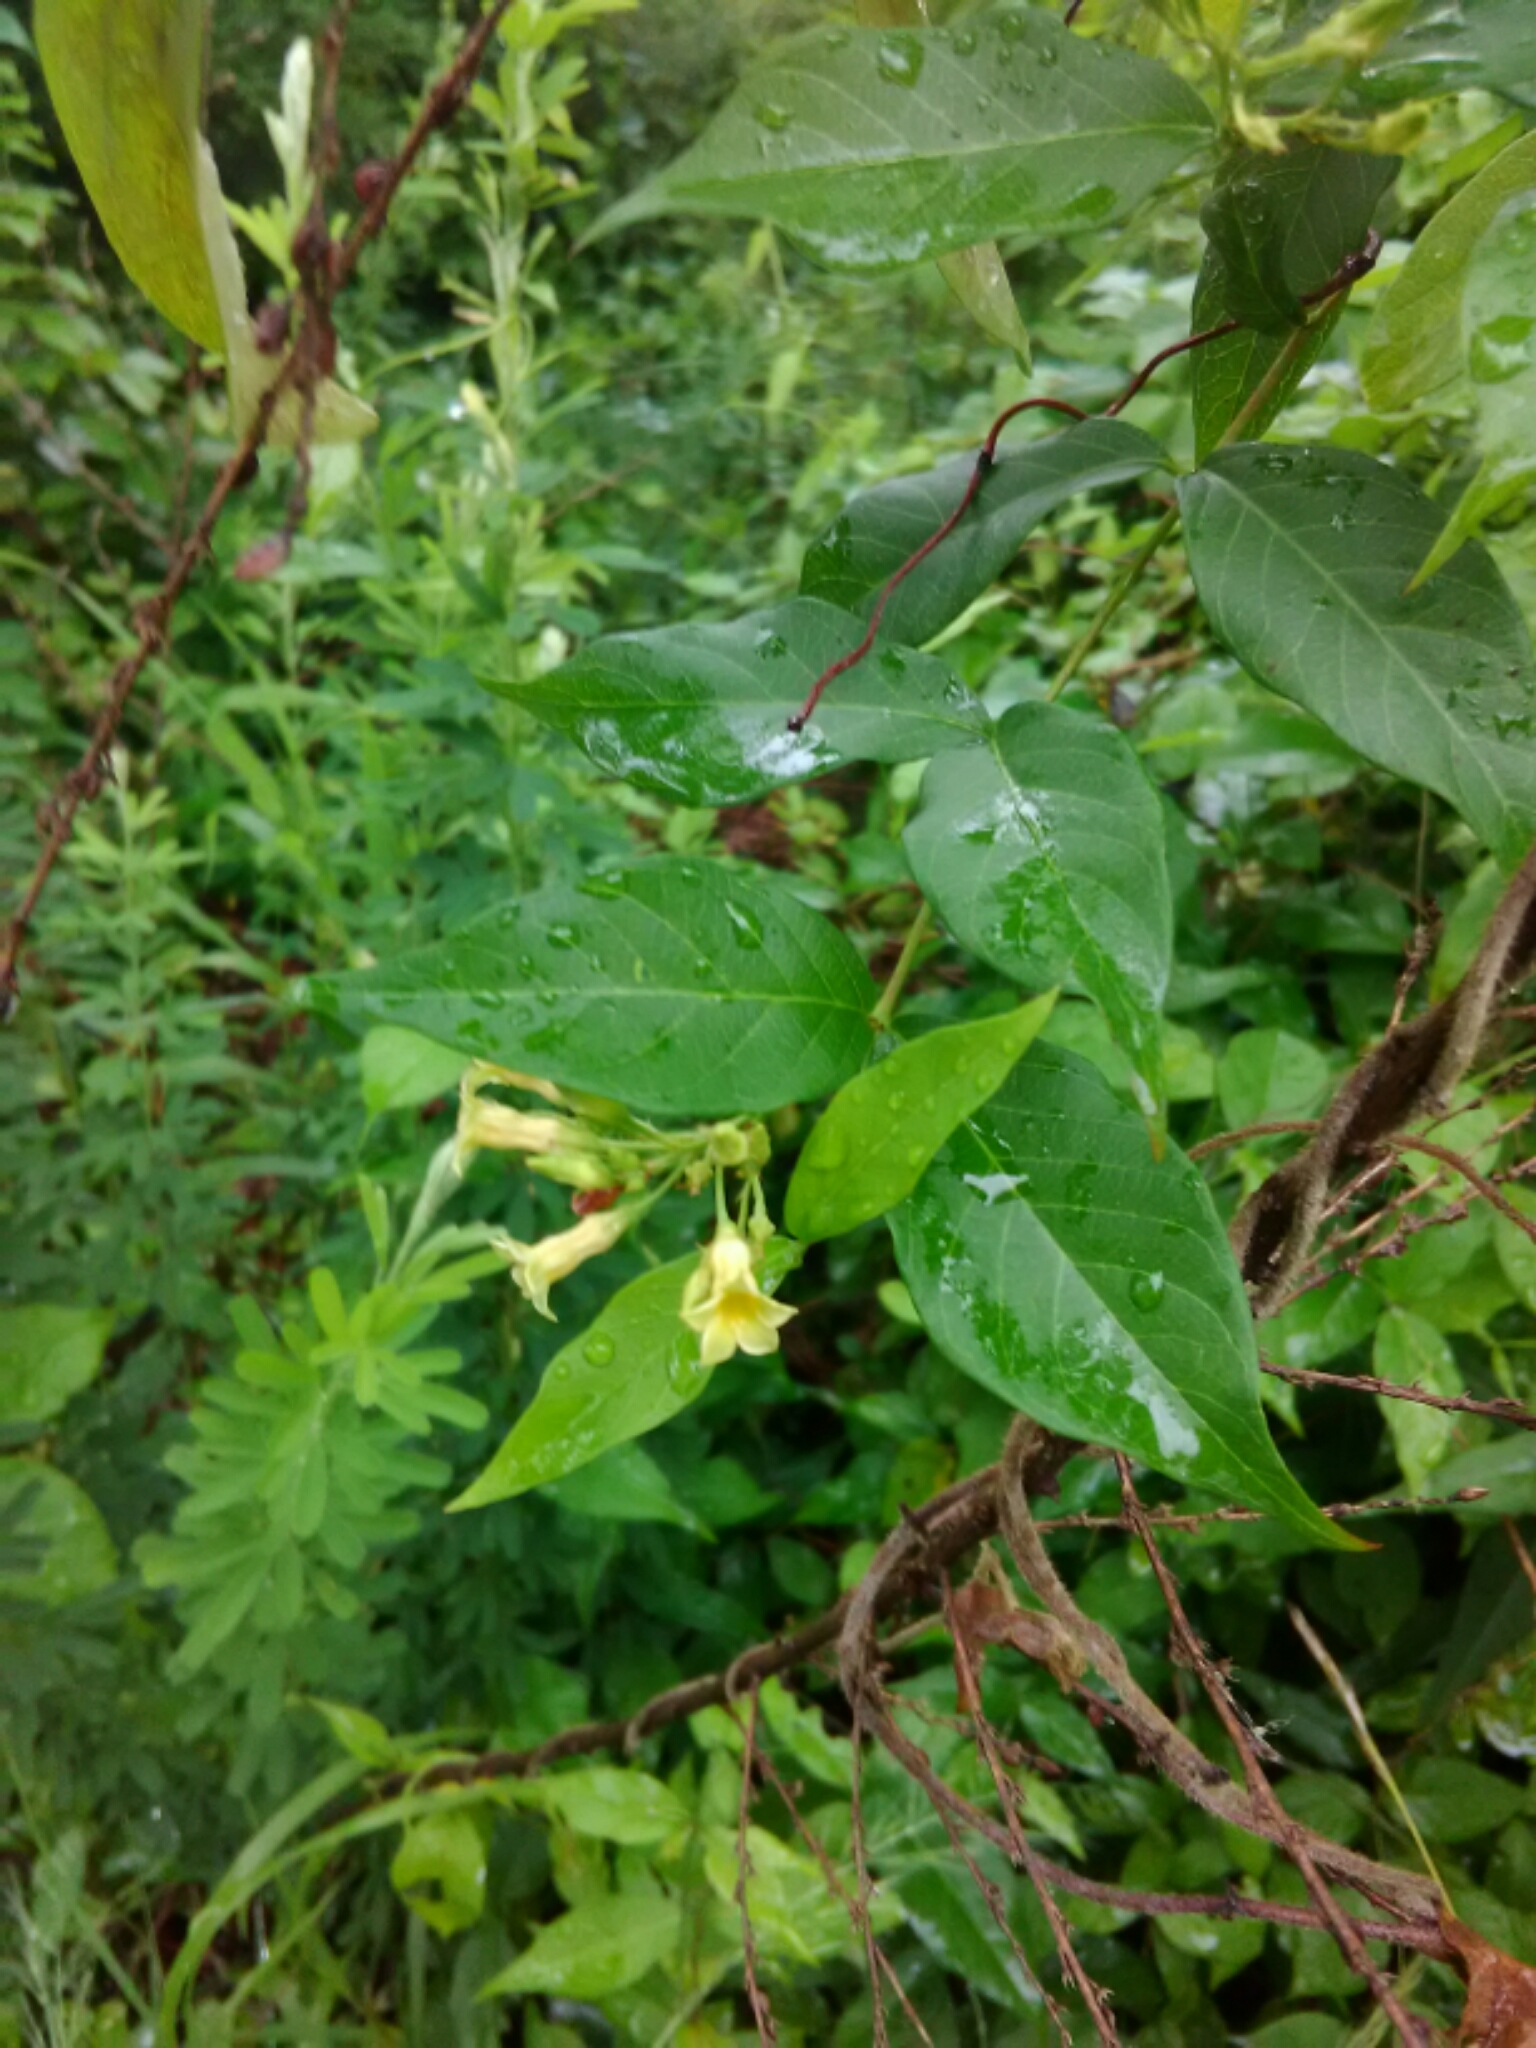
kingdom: Plantae
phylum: Tracheophyta
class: Magnoliopsida
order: Gentianales
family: Apocynaceae
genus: Thyrsanthella
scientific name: Thyrsanthella difformis
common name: Climbing dogbane
